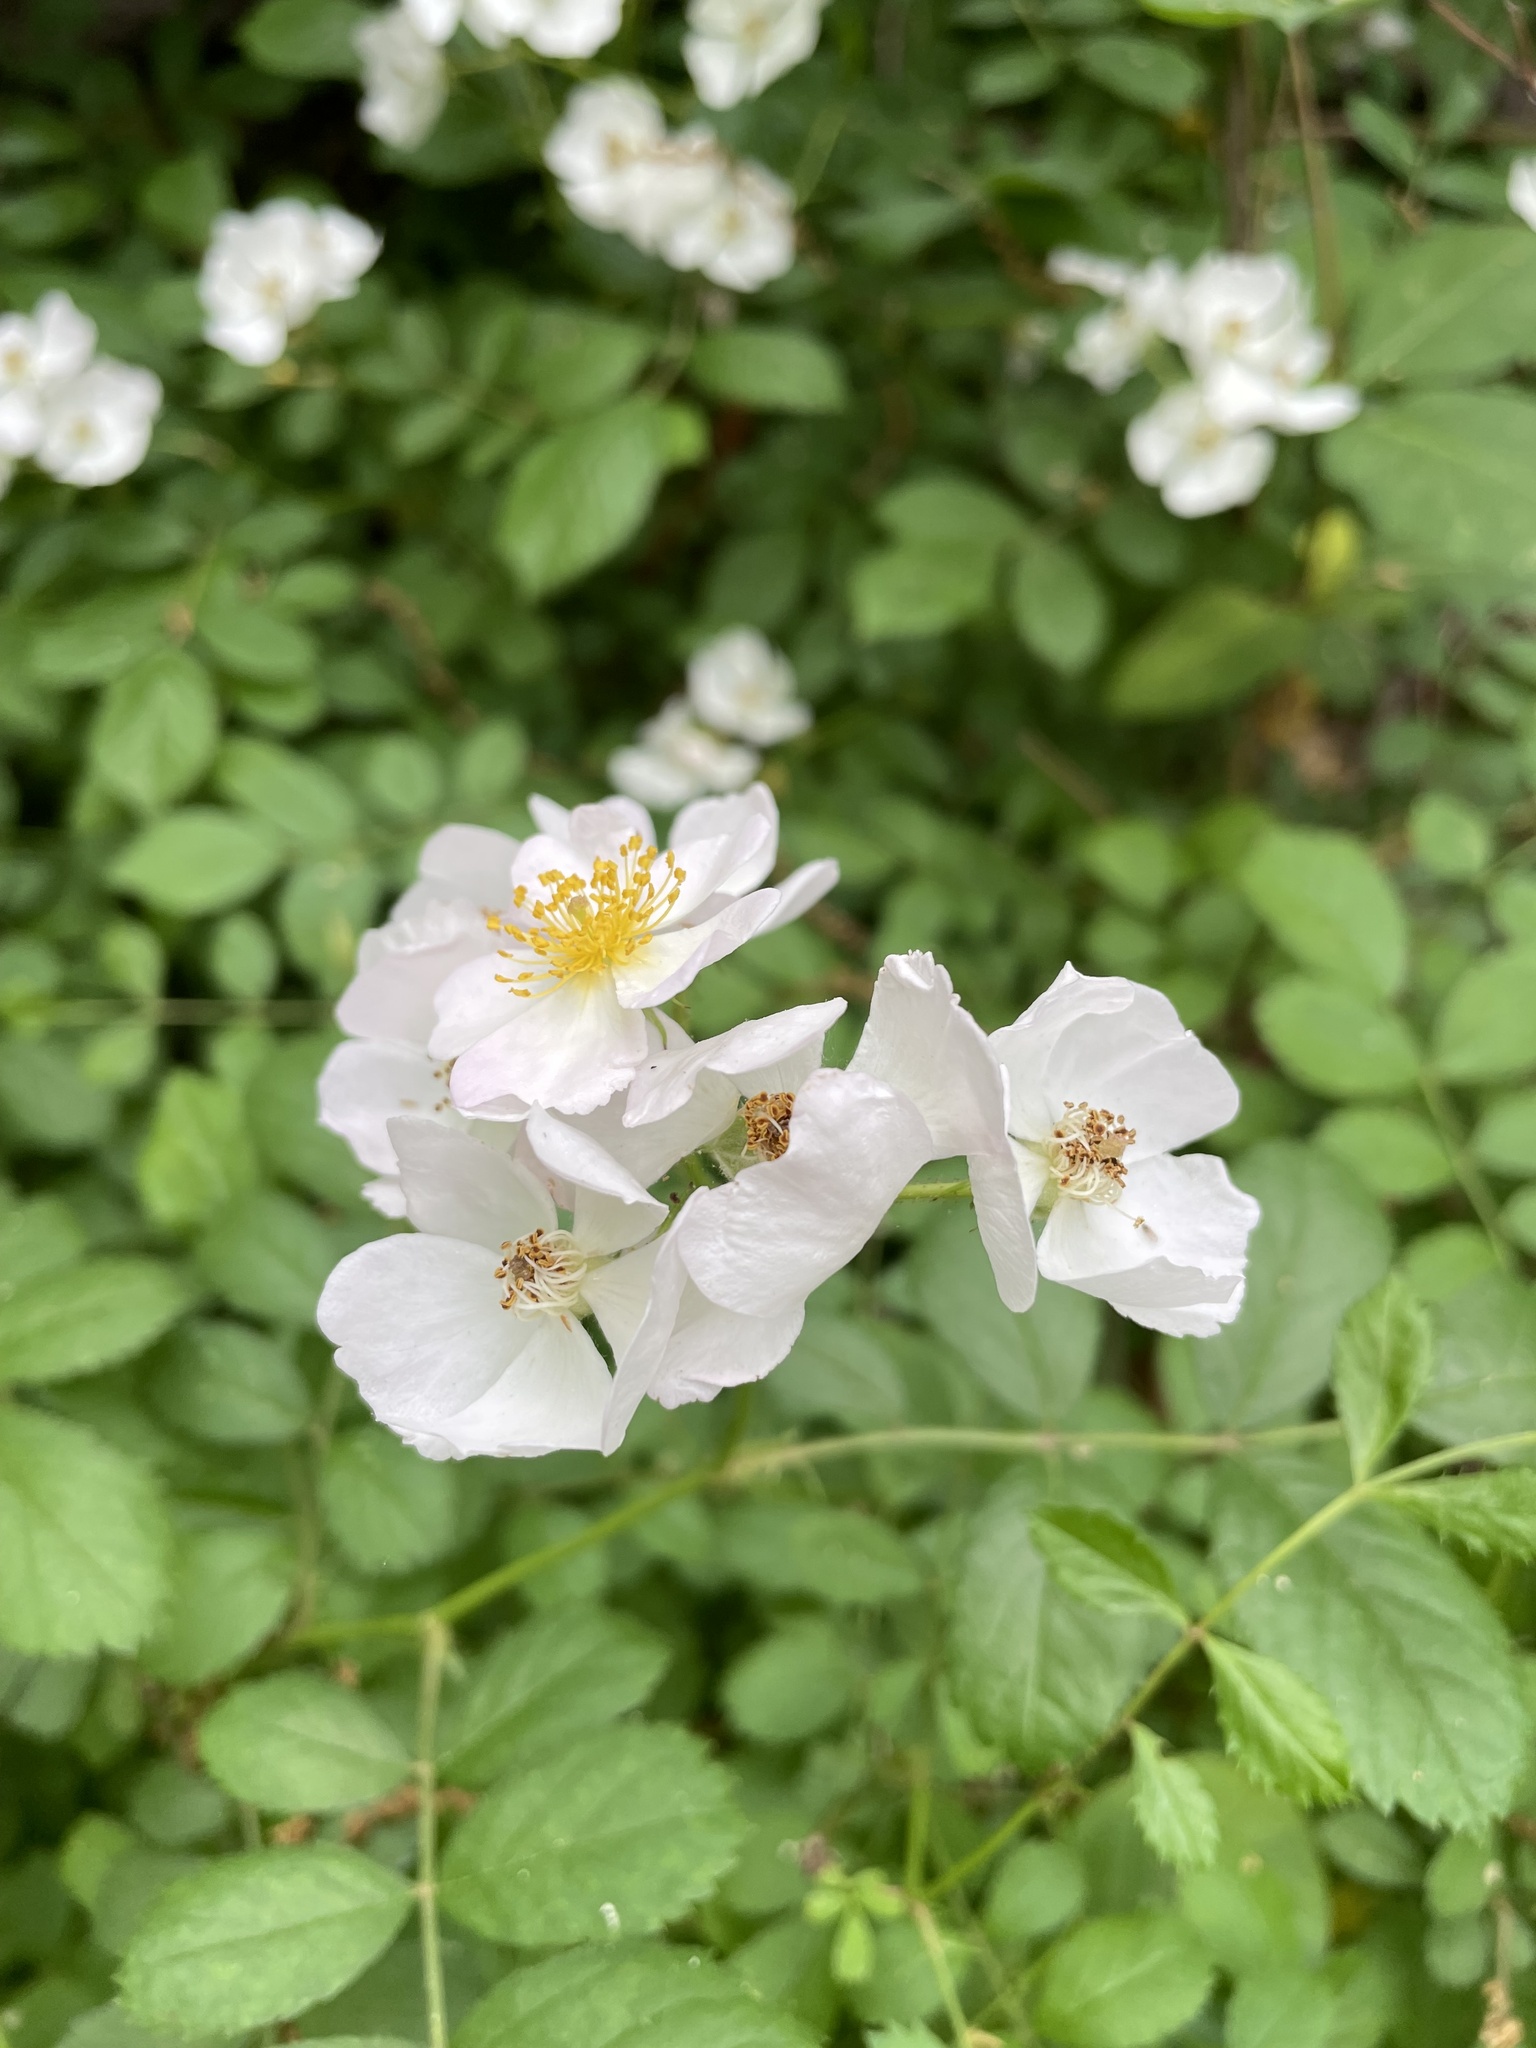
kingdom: Plantae
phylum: Tracheophyta
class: Magnoliopsida
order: Rosales
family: Rosaceae
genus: Rosa
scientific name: Rosa multiflora
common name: Multiflora rose
